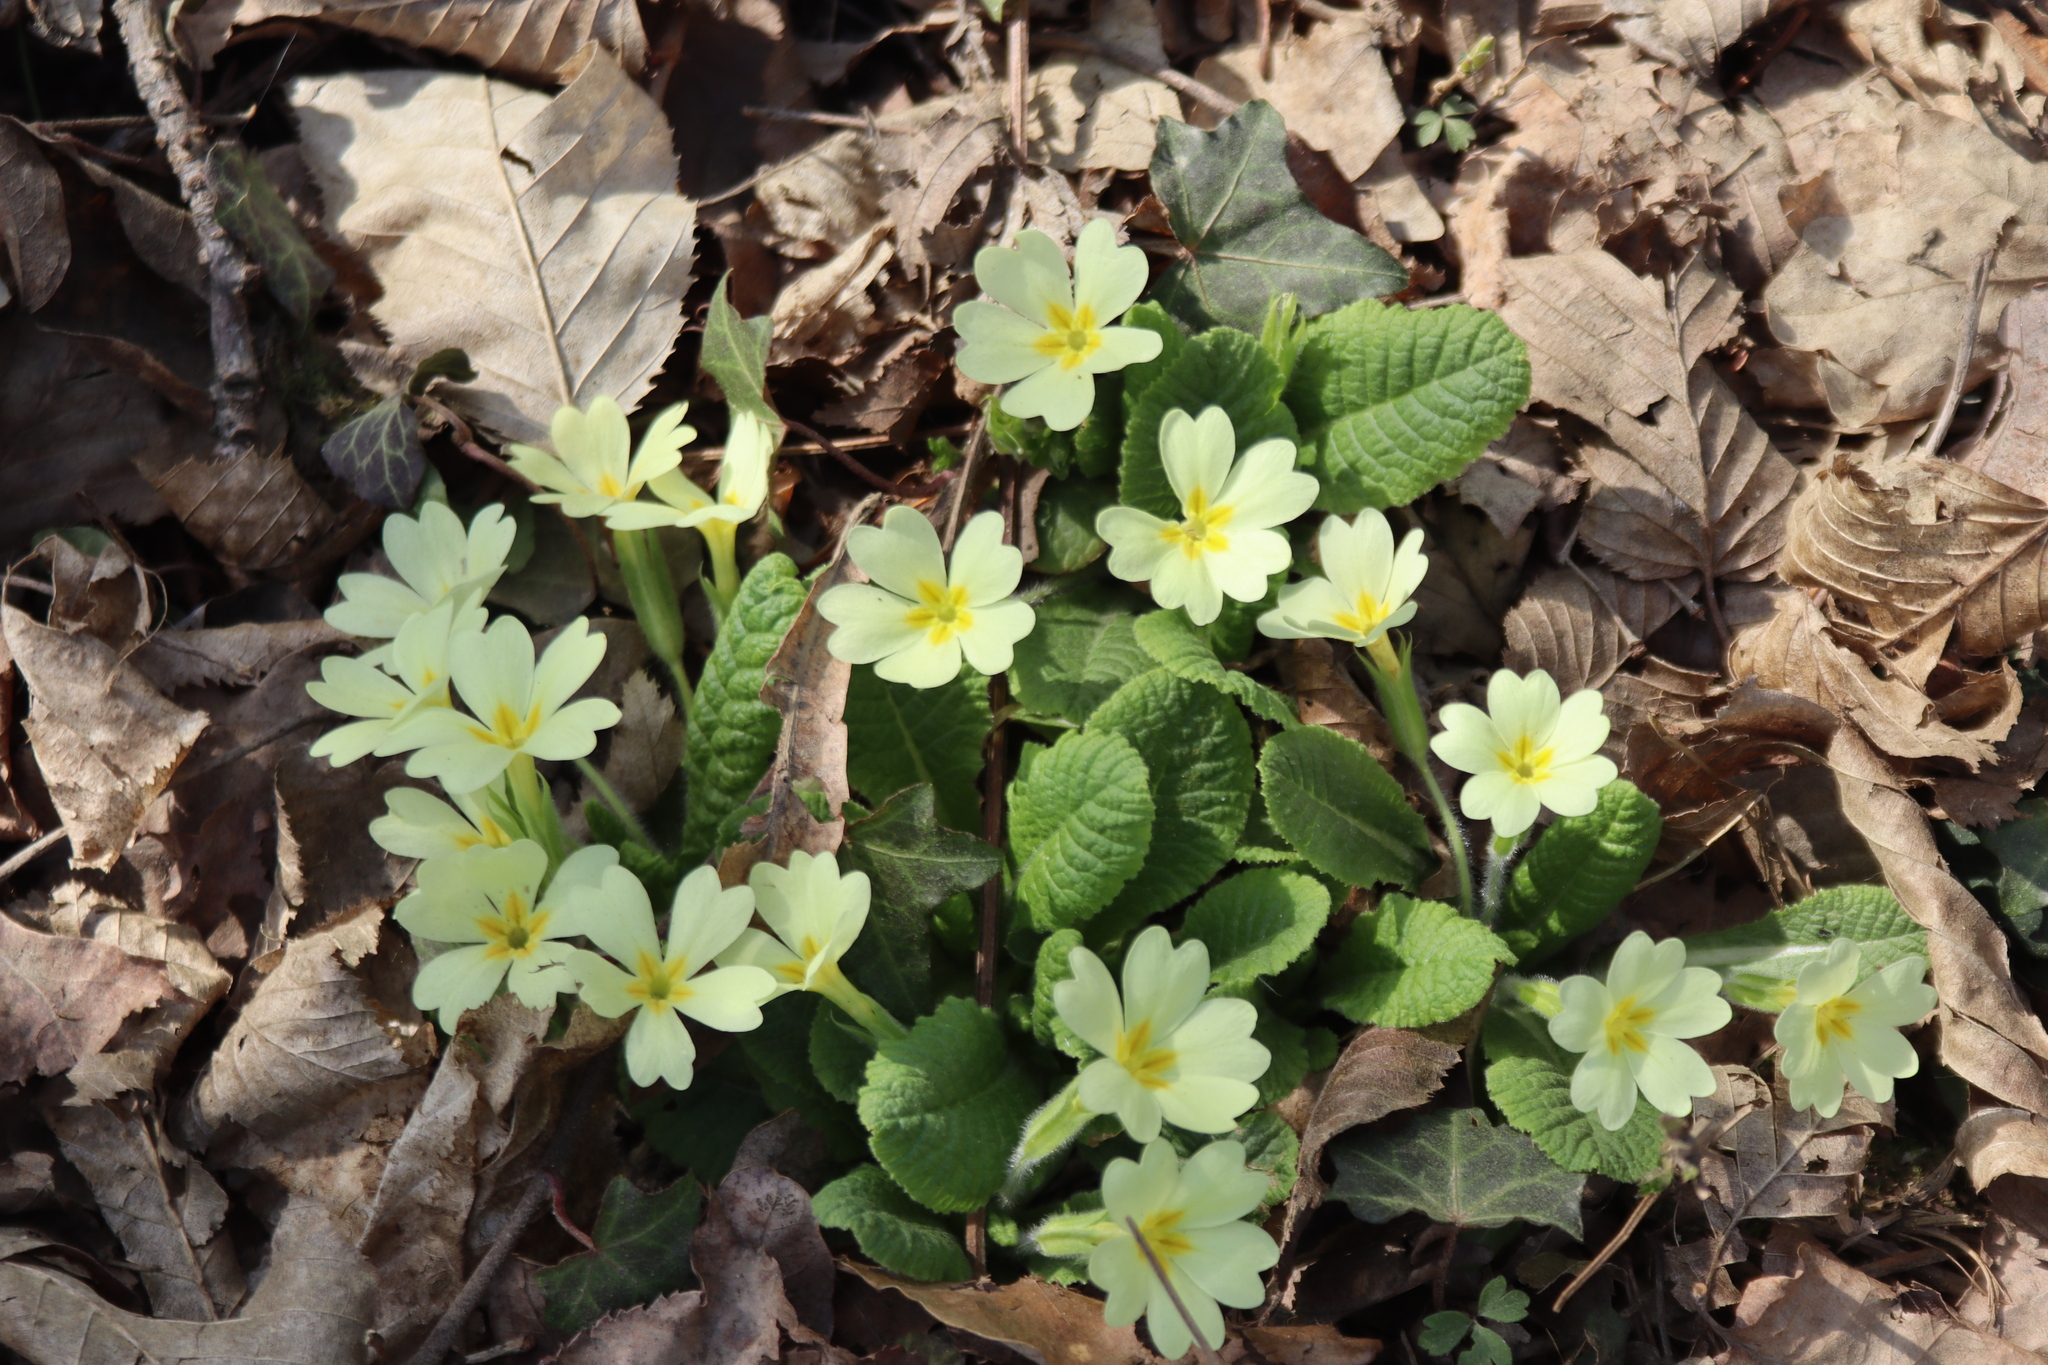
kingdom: Plantae
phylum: Tracheophyta
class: Magnoliopsida
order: Ericales
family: Primulaceae
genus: Primula
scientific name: Primula vulgaris
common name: Primrose
